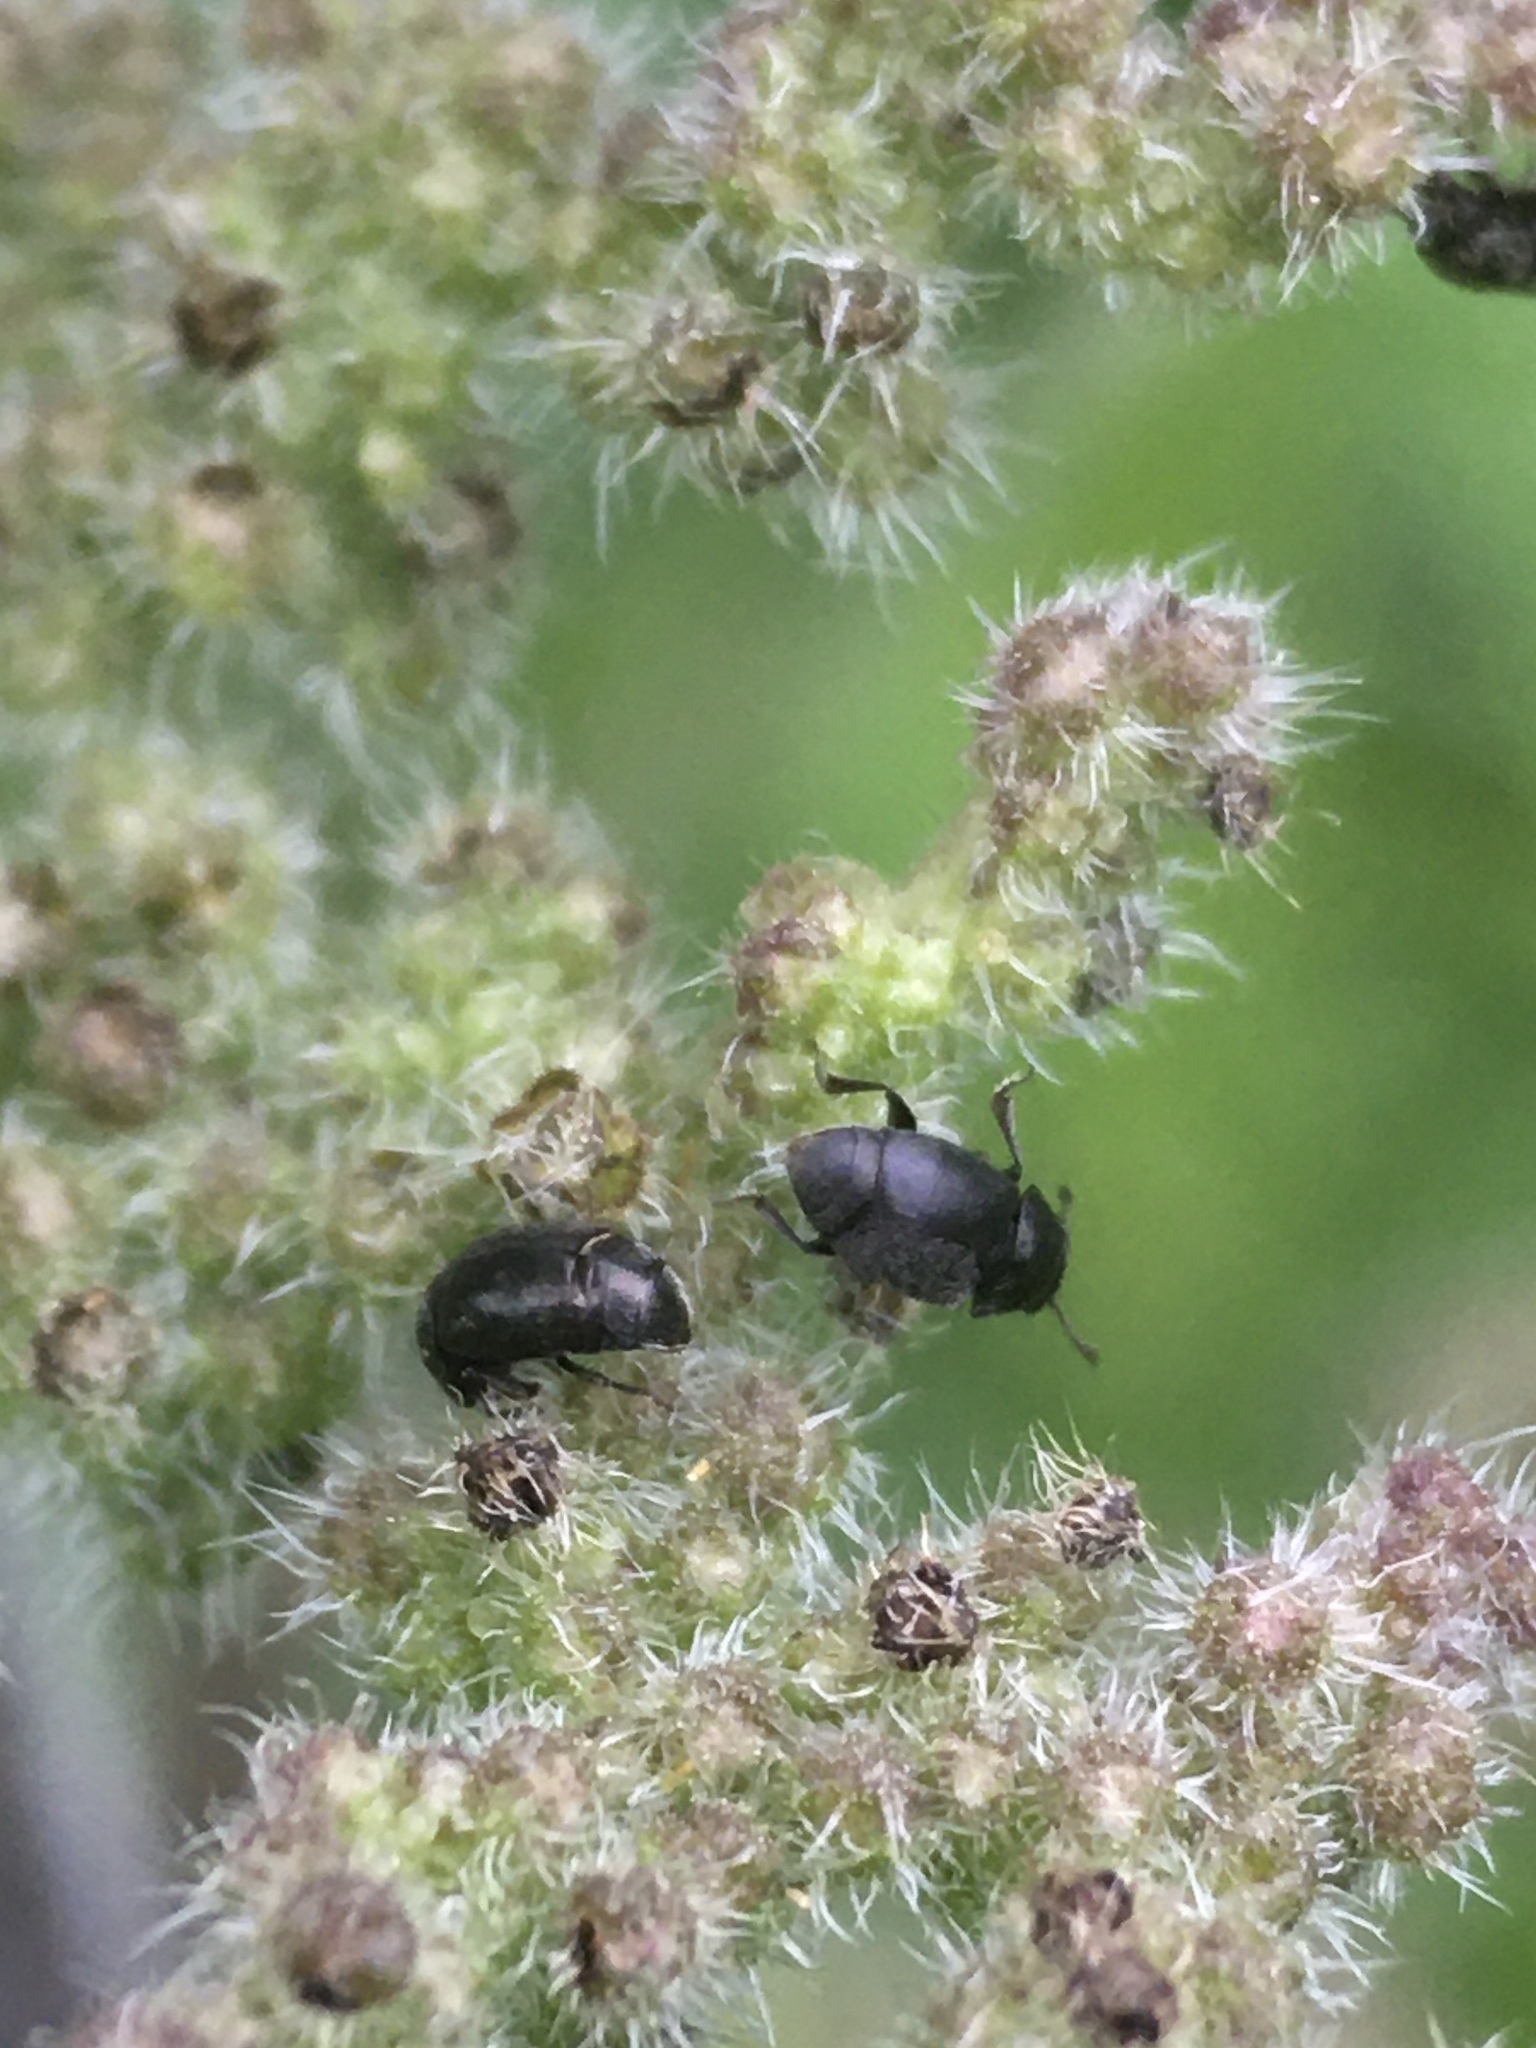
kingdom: Animalia
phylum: Arthropoda
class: Insecta
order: Coleoptera
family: Kateretidae
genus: Brachypterus
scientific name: Brachypterus glaber
